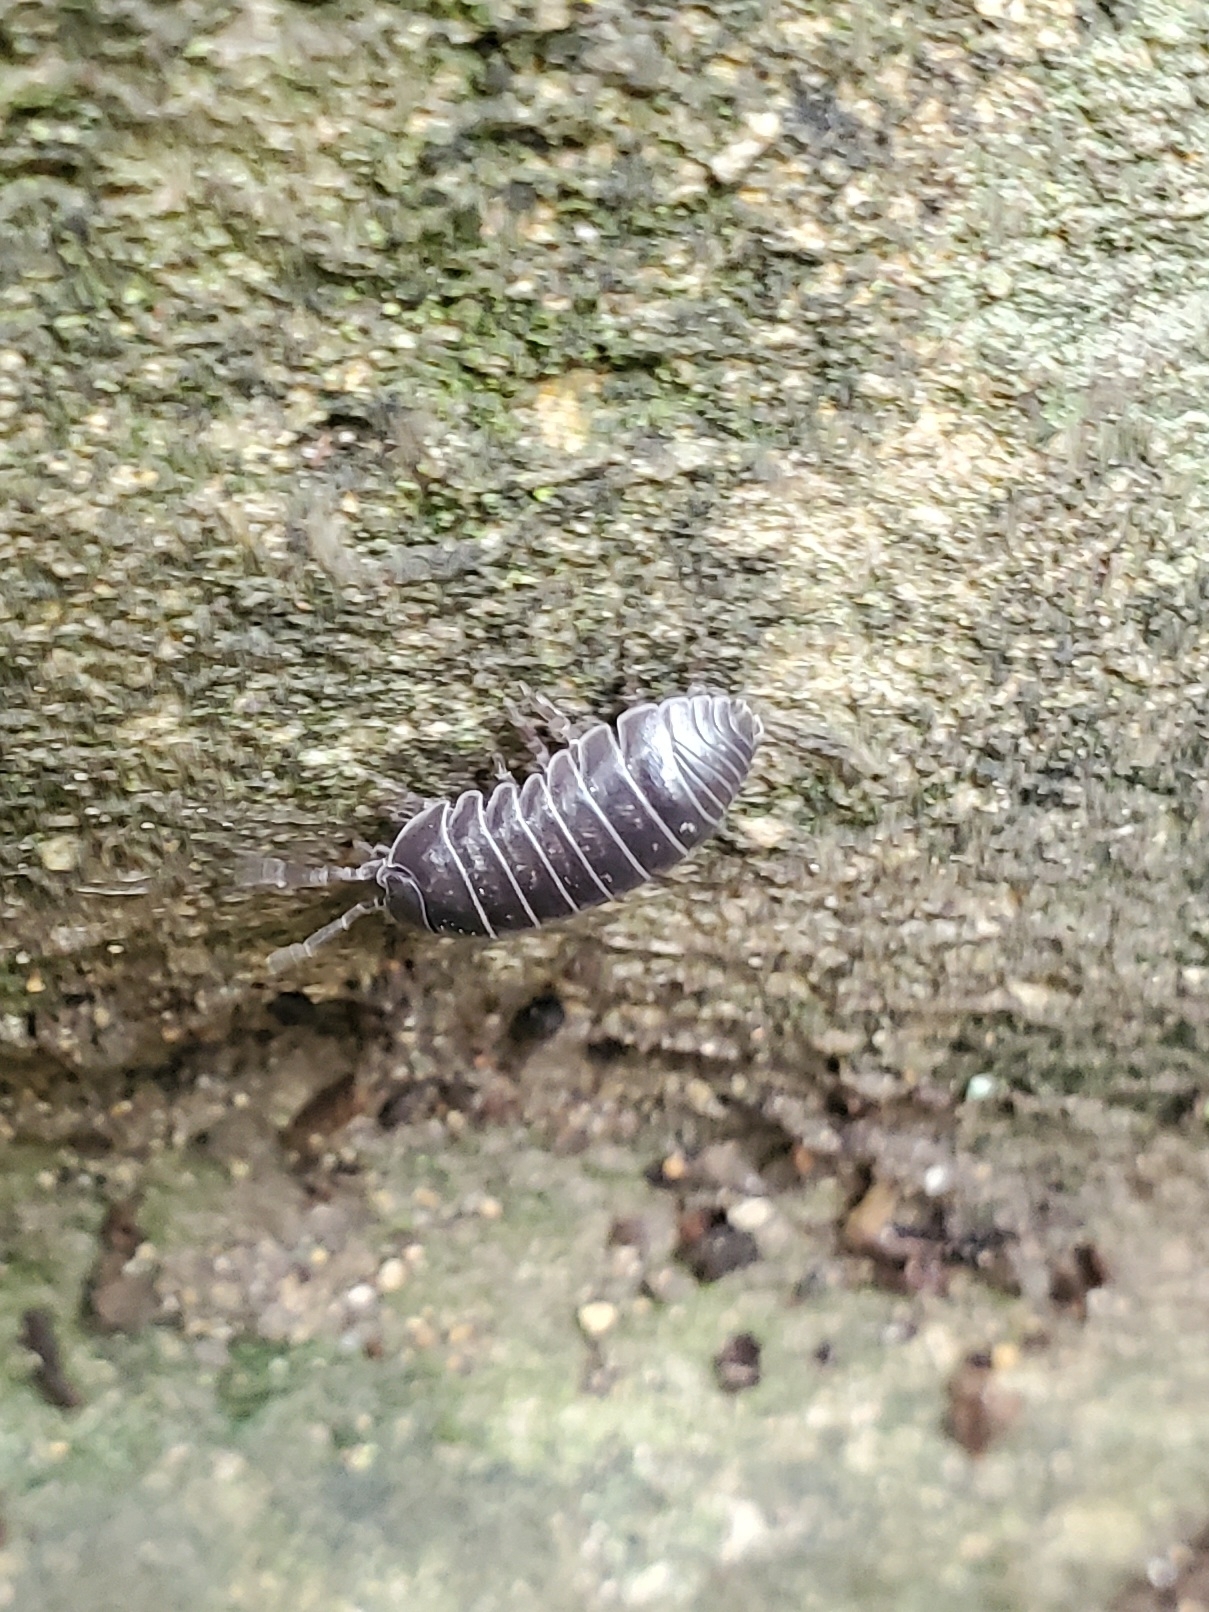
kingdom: Animalia
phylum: Arthropoda
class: Malacostraca
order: Isopoda
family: Armadillidiidae
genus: Armadillidium
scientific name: Armadillidium vulgare
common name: Common pill woodlouse
